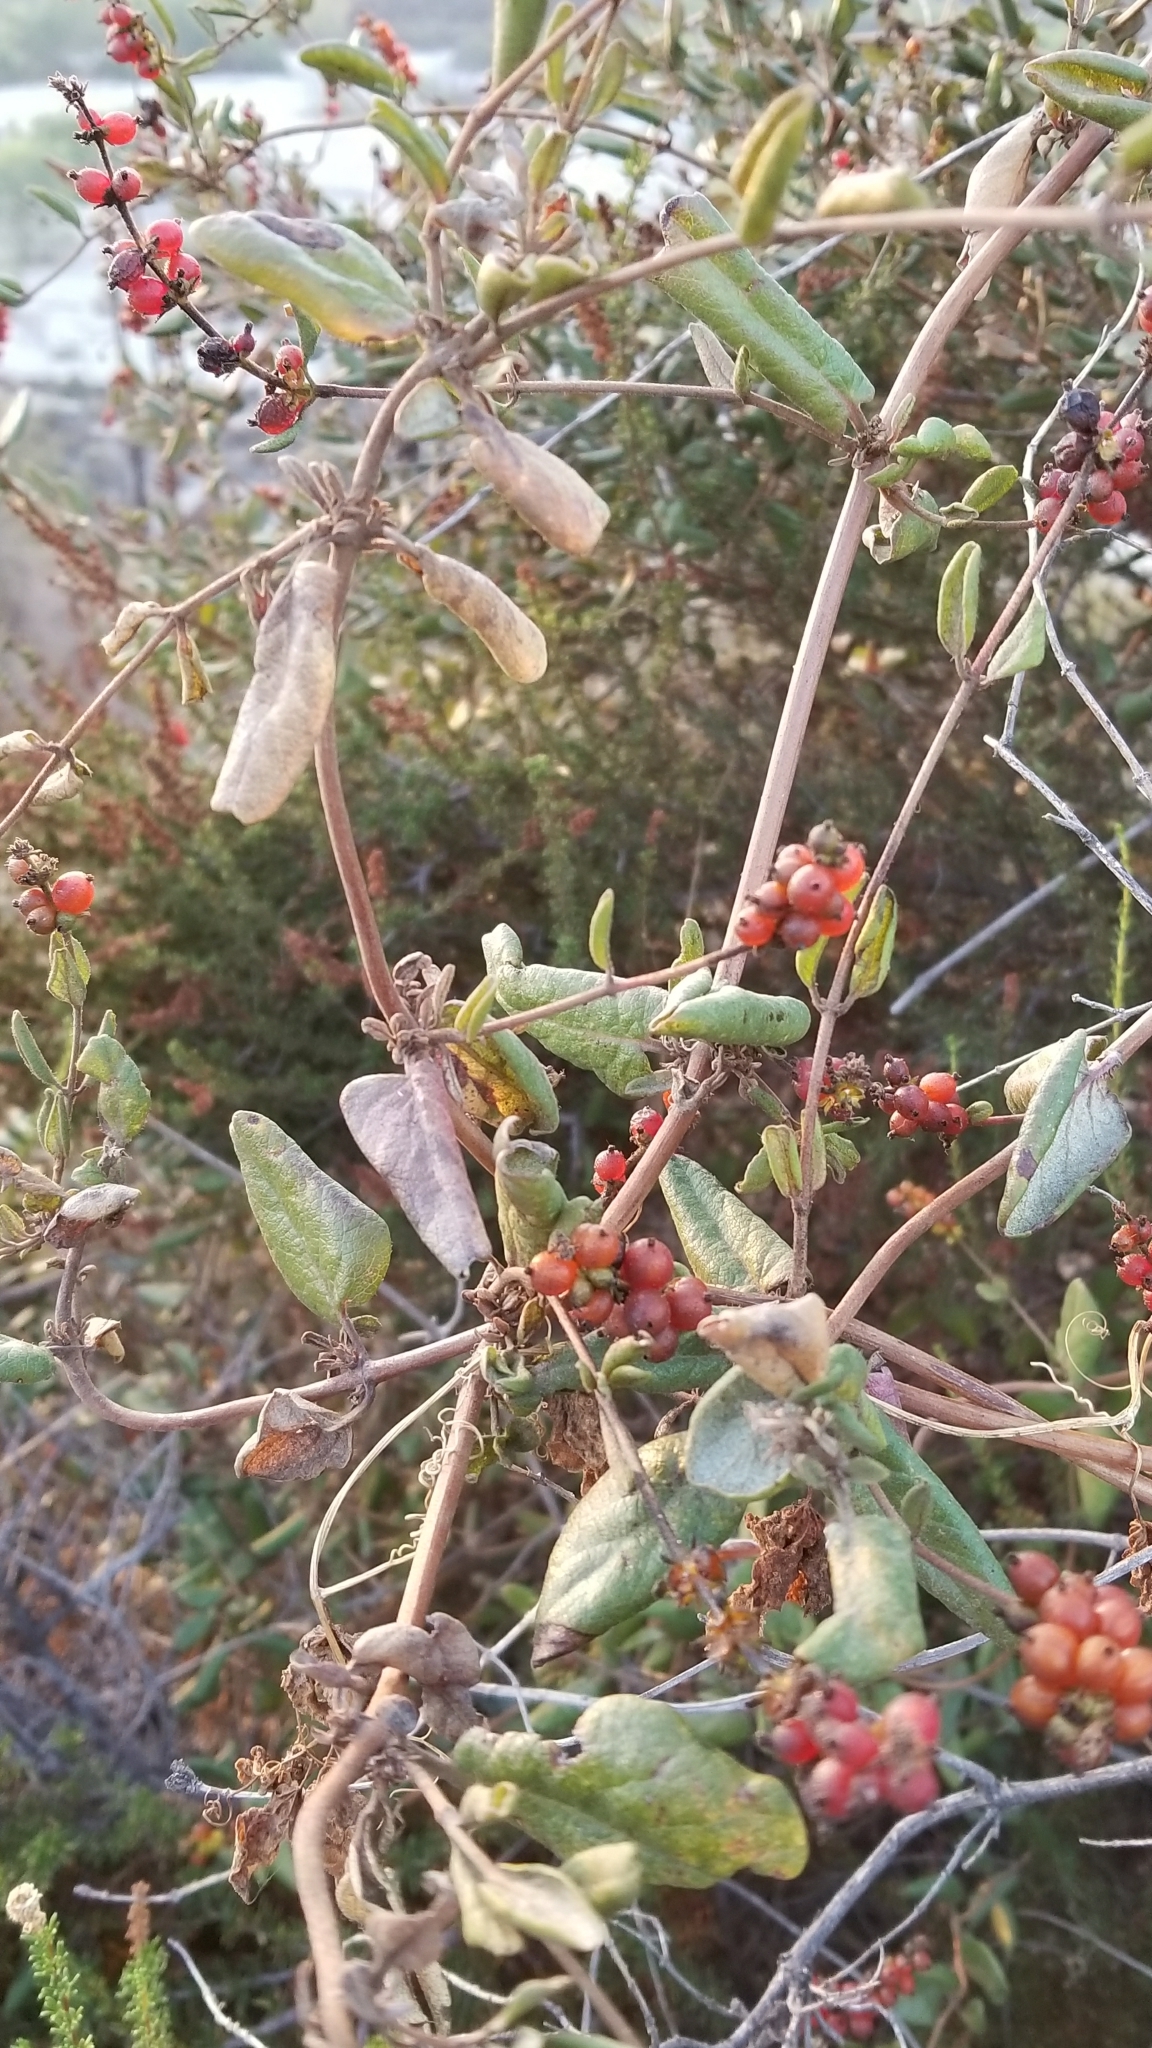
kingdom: Plantae
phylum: Tracheophyta
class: Magnoliopsida
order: Dipsacales
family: Caprifoliaceae
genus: Lonicera
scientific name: Lonicera subspicata
